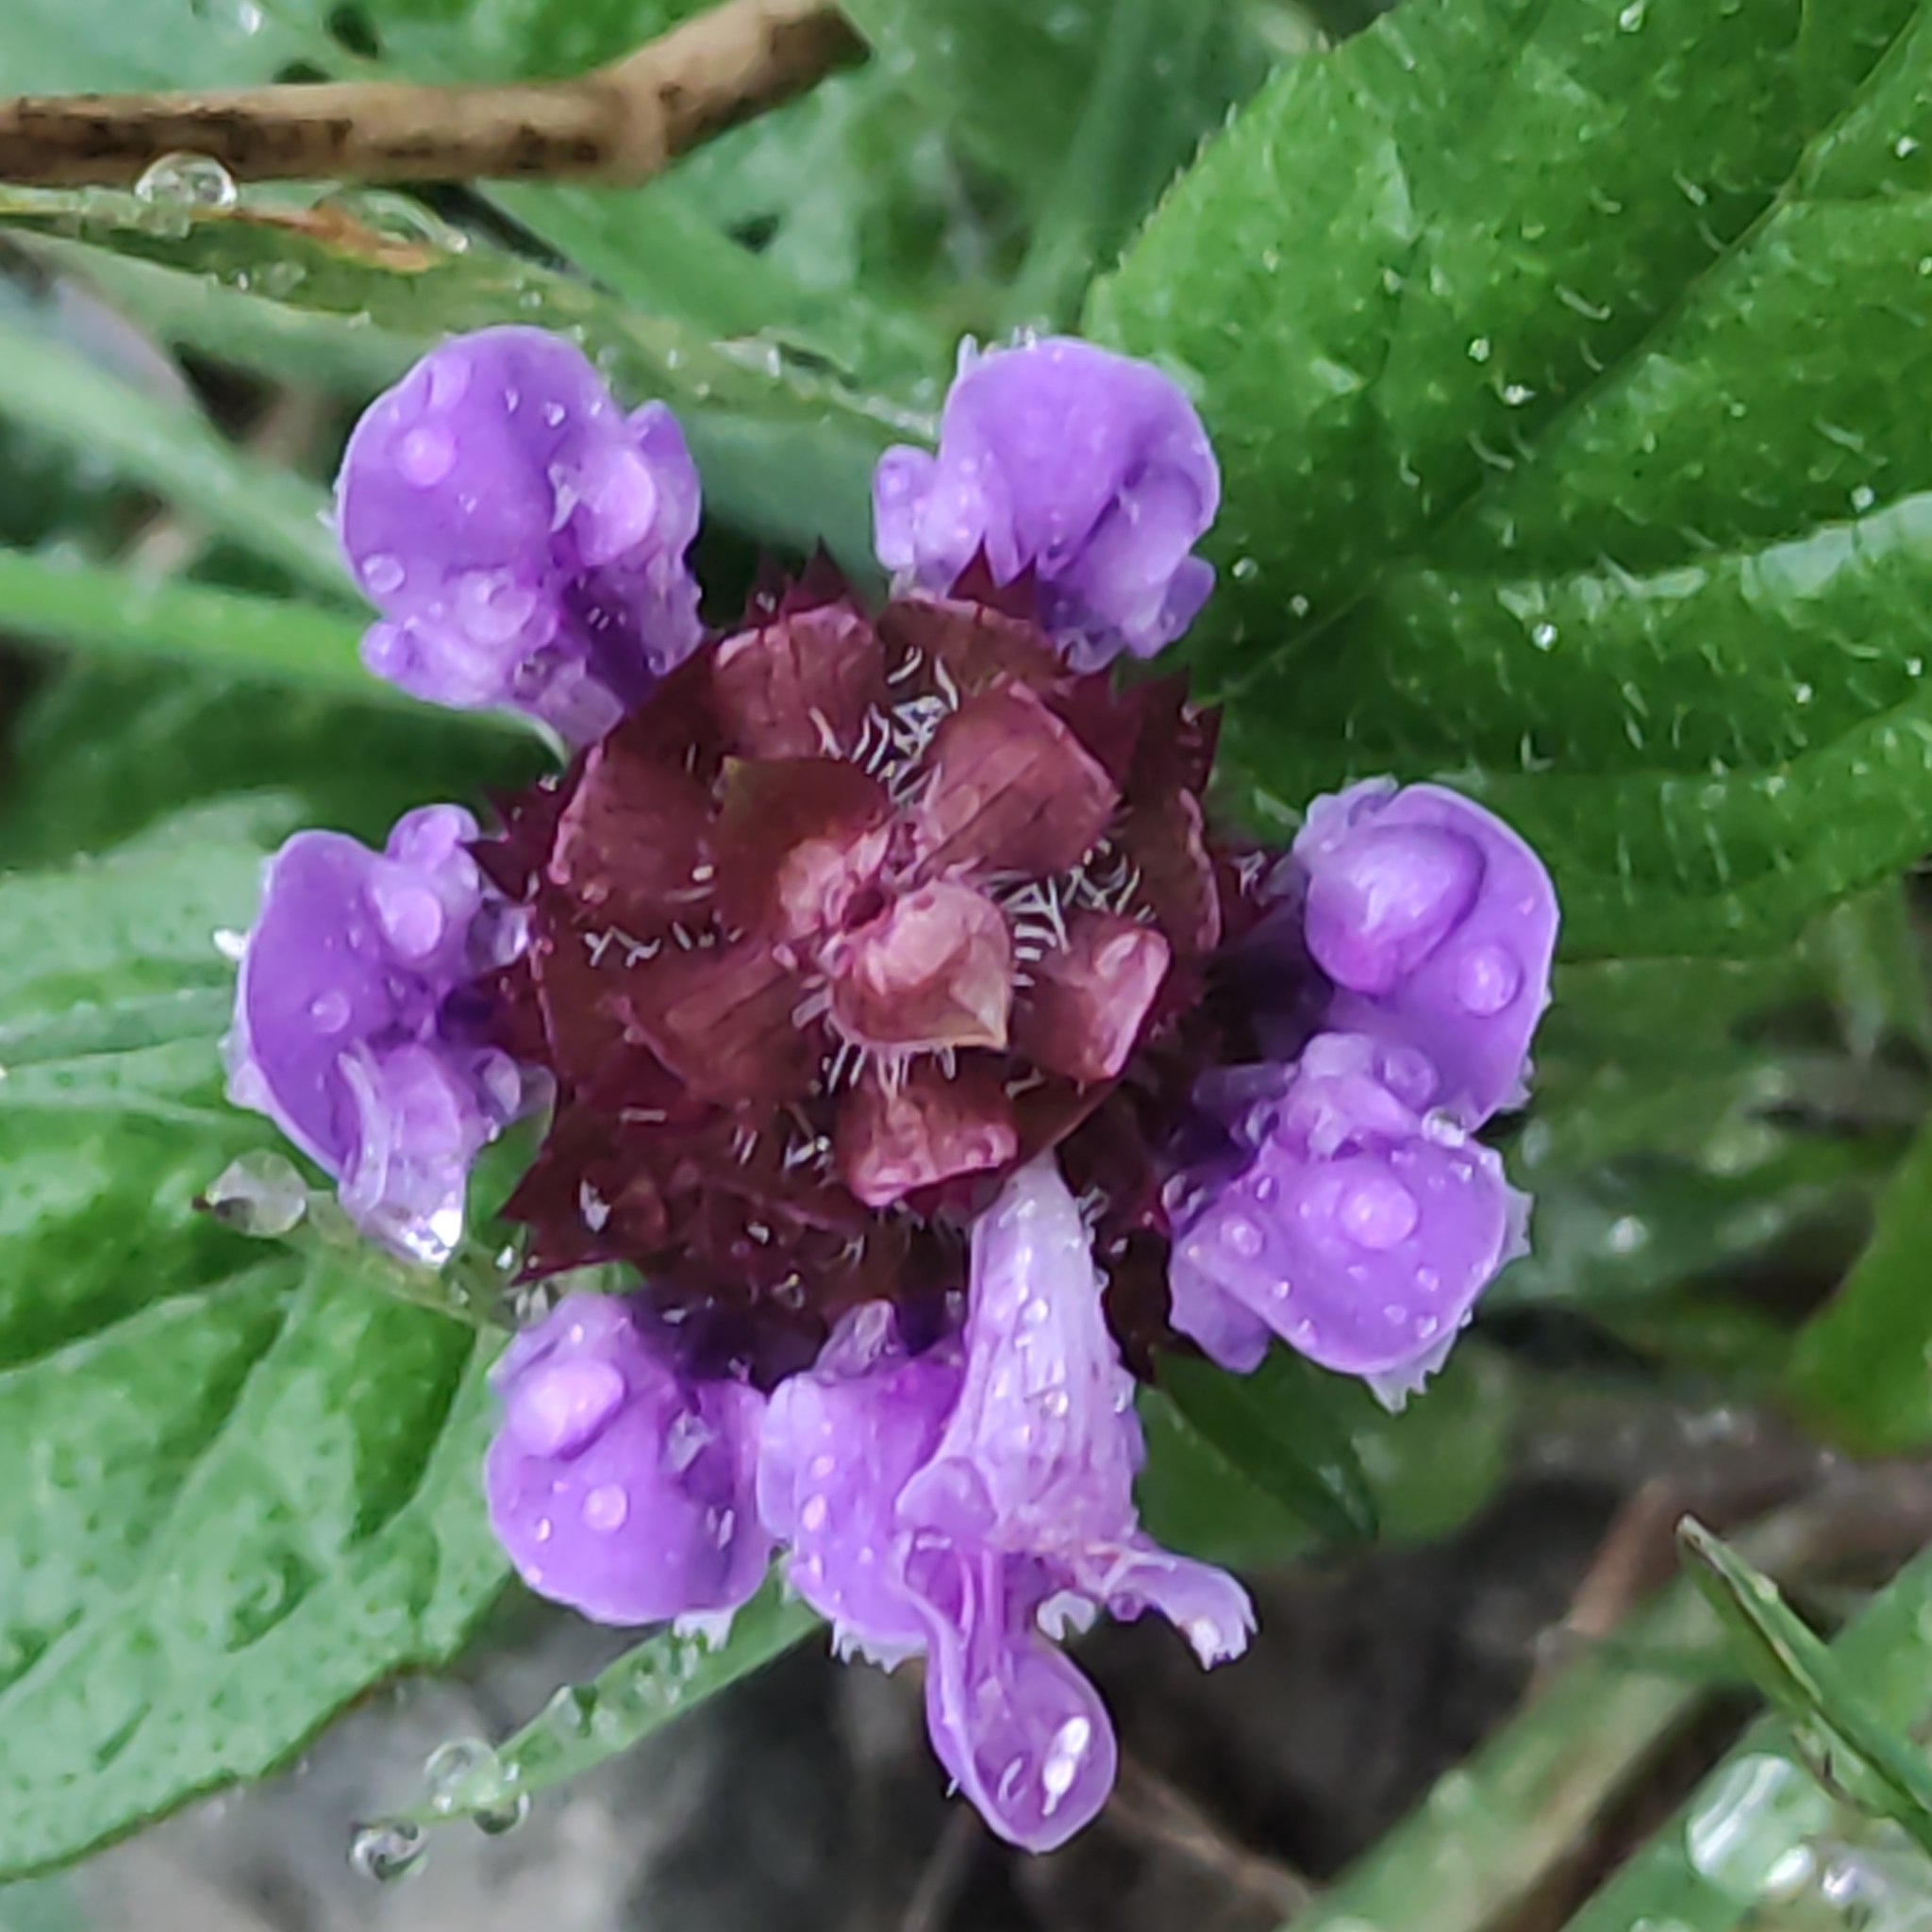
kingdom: Plantae
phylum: Tracheophyta
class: Magnoliopsida
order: Lamiales
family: Lamiaceae
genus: Prunella
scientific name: Prunella vulgaris
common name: Heal-all
